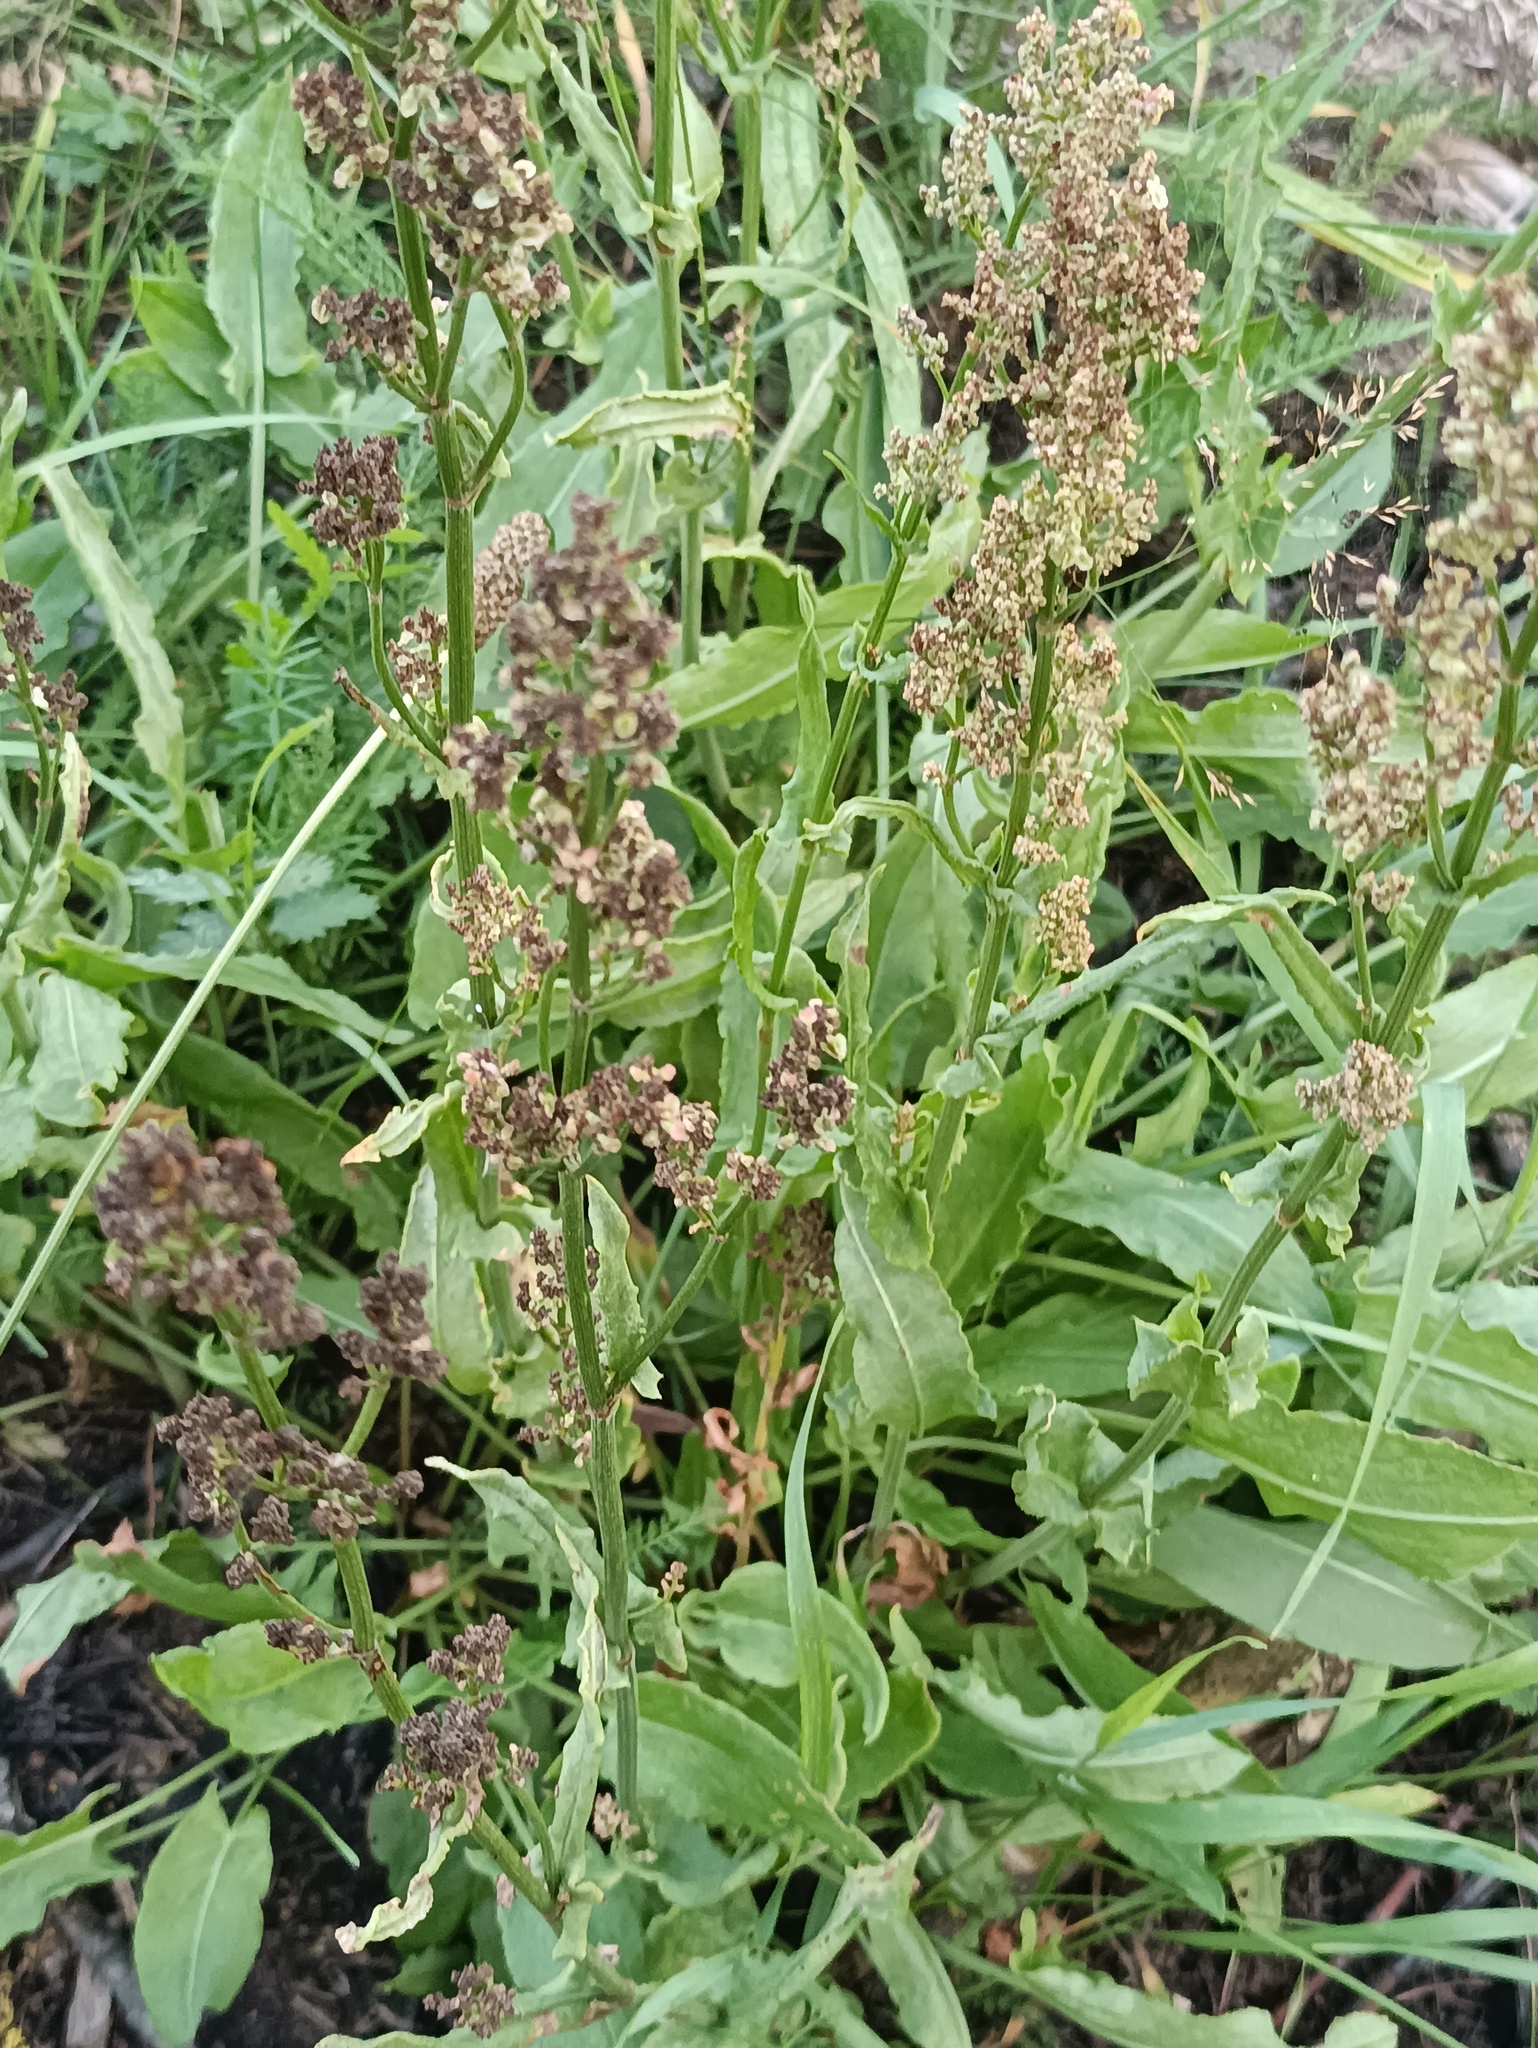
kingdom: Plantae
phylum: Tracheophyta
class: Magnoliopsida
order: Caryophyllales
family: Polygonaceae
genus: Rumex
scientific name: Rumex thyrsiflorus
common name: Garden sorrel
